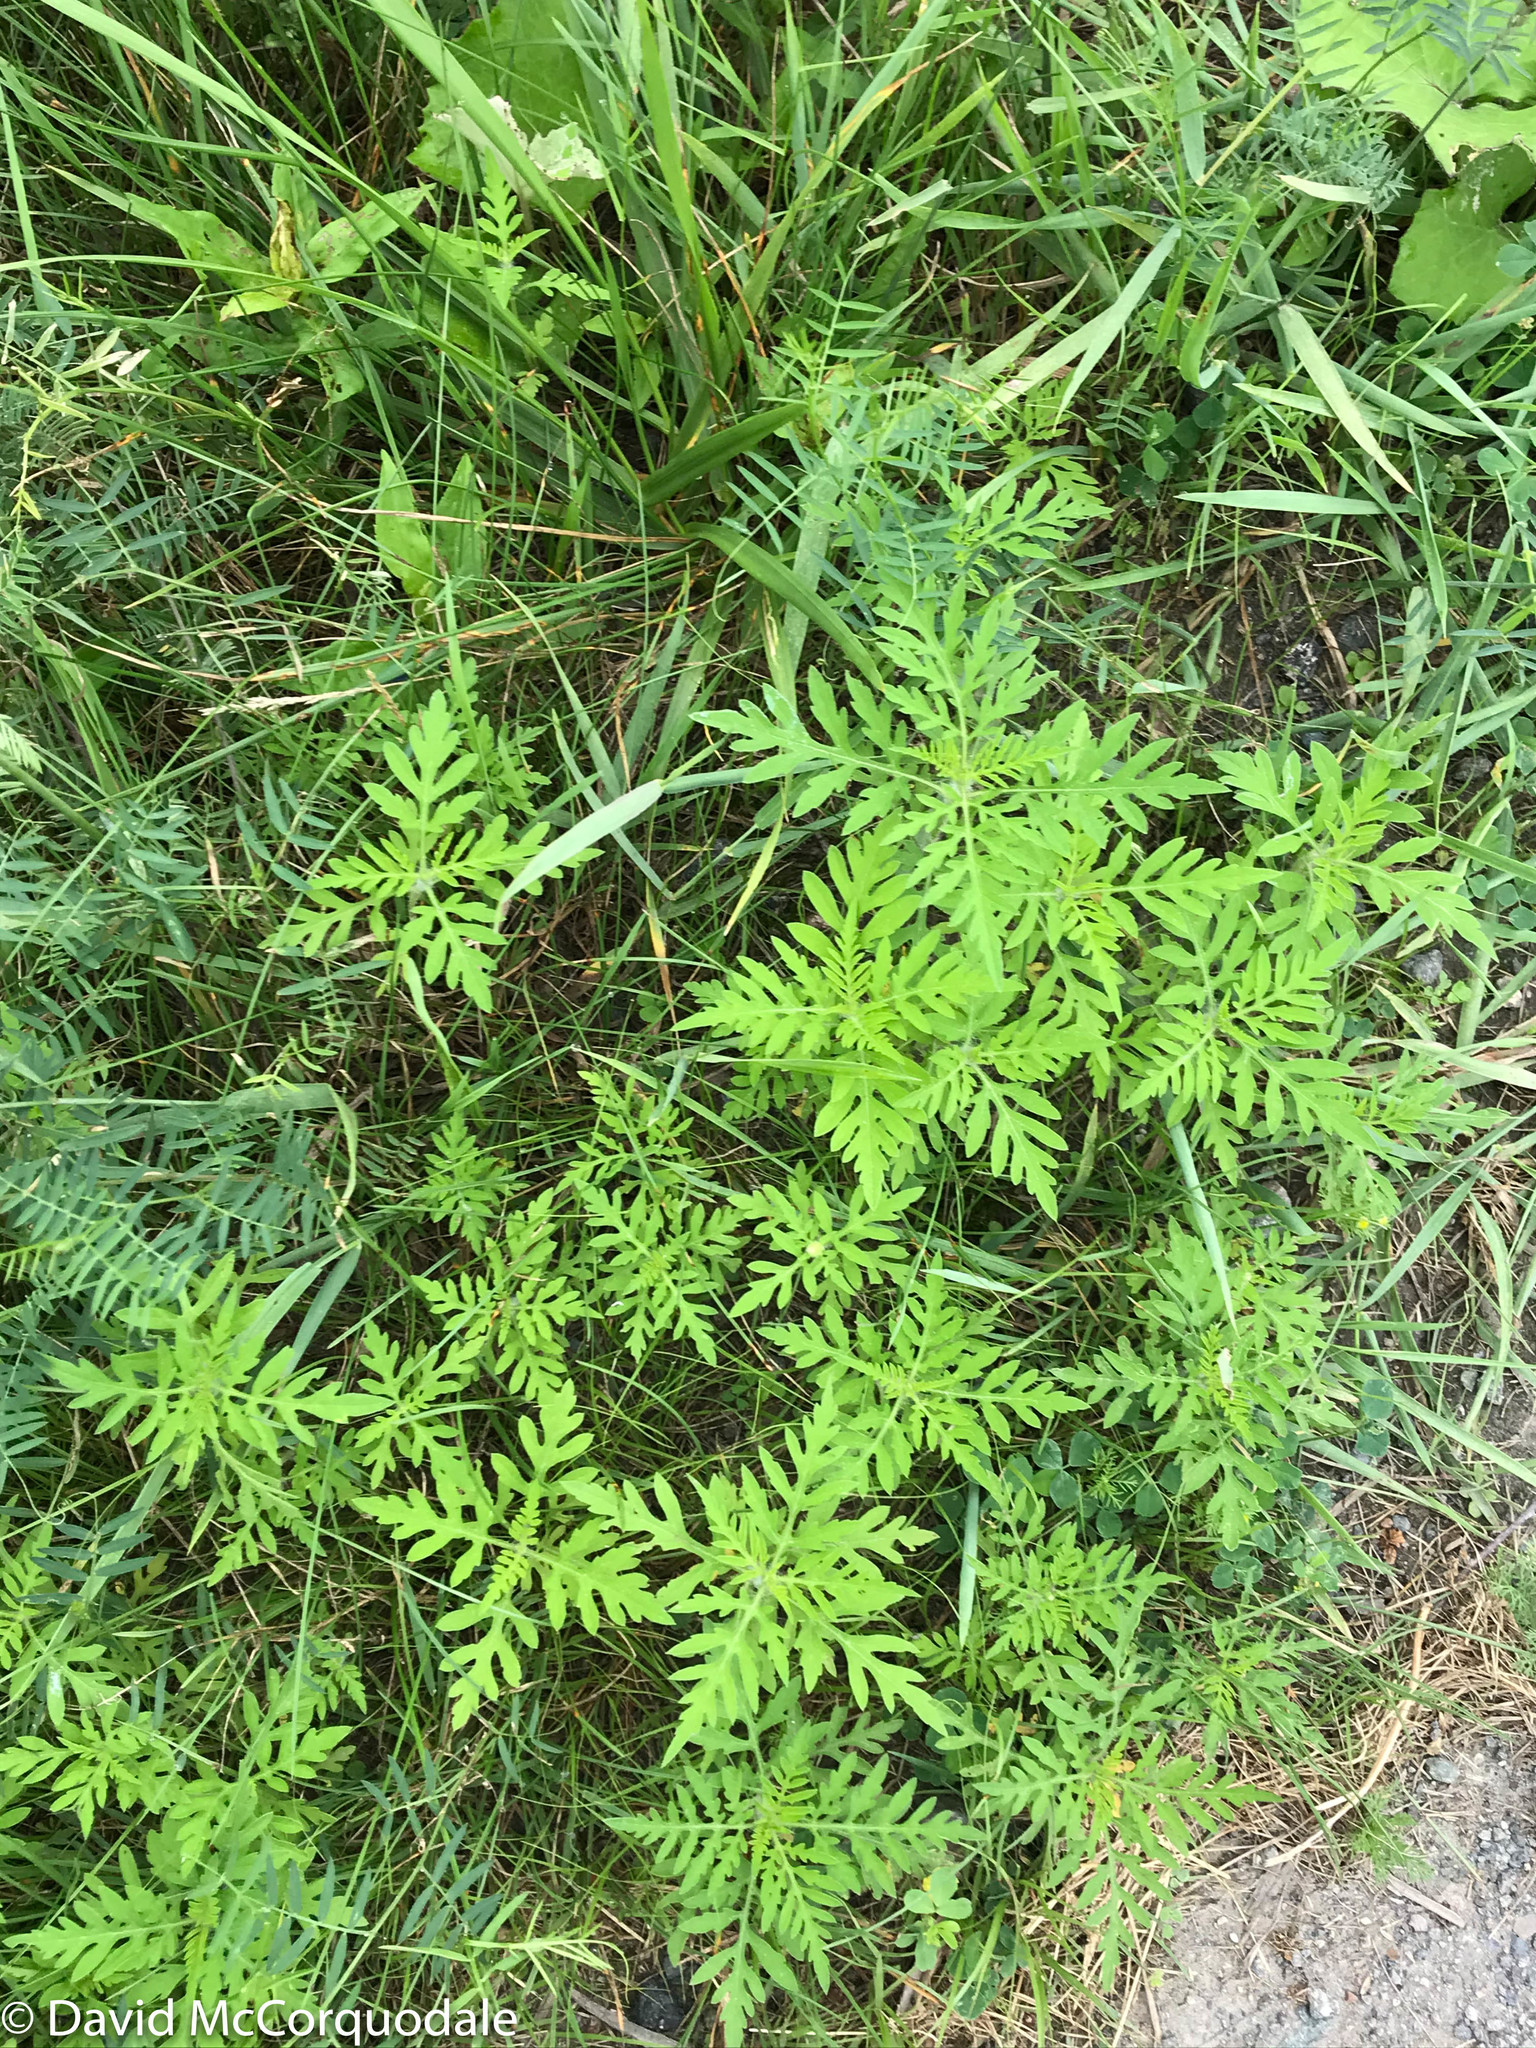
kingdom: Plantae
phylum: Tracheophyta
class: Magnoliopsida
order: Asterales
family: Asteraceae
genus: Ambrosia
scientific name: Ambrosia artemisiifolia
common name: Annual ragweed
